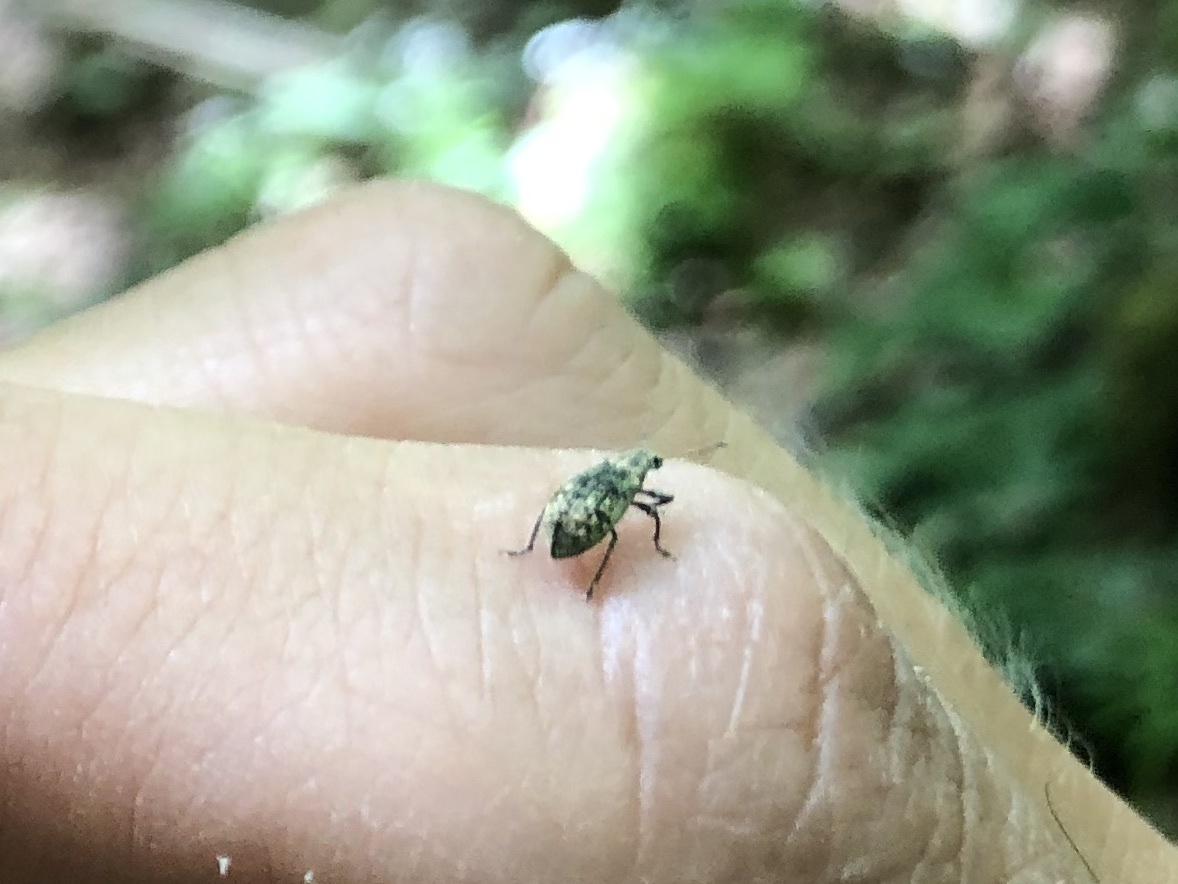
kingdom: Animalia
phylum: Arthropoda
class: Insecta
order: Coleoptera
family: Curculionidae
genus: Polydrusus
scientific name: Polydrusus cervinus
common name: Weevil
